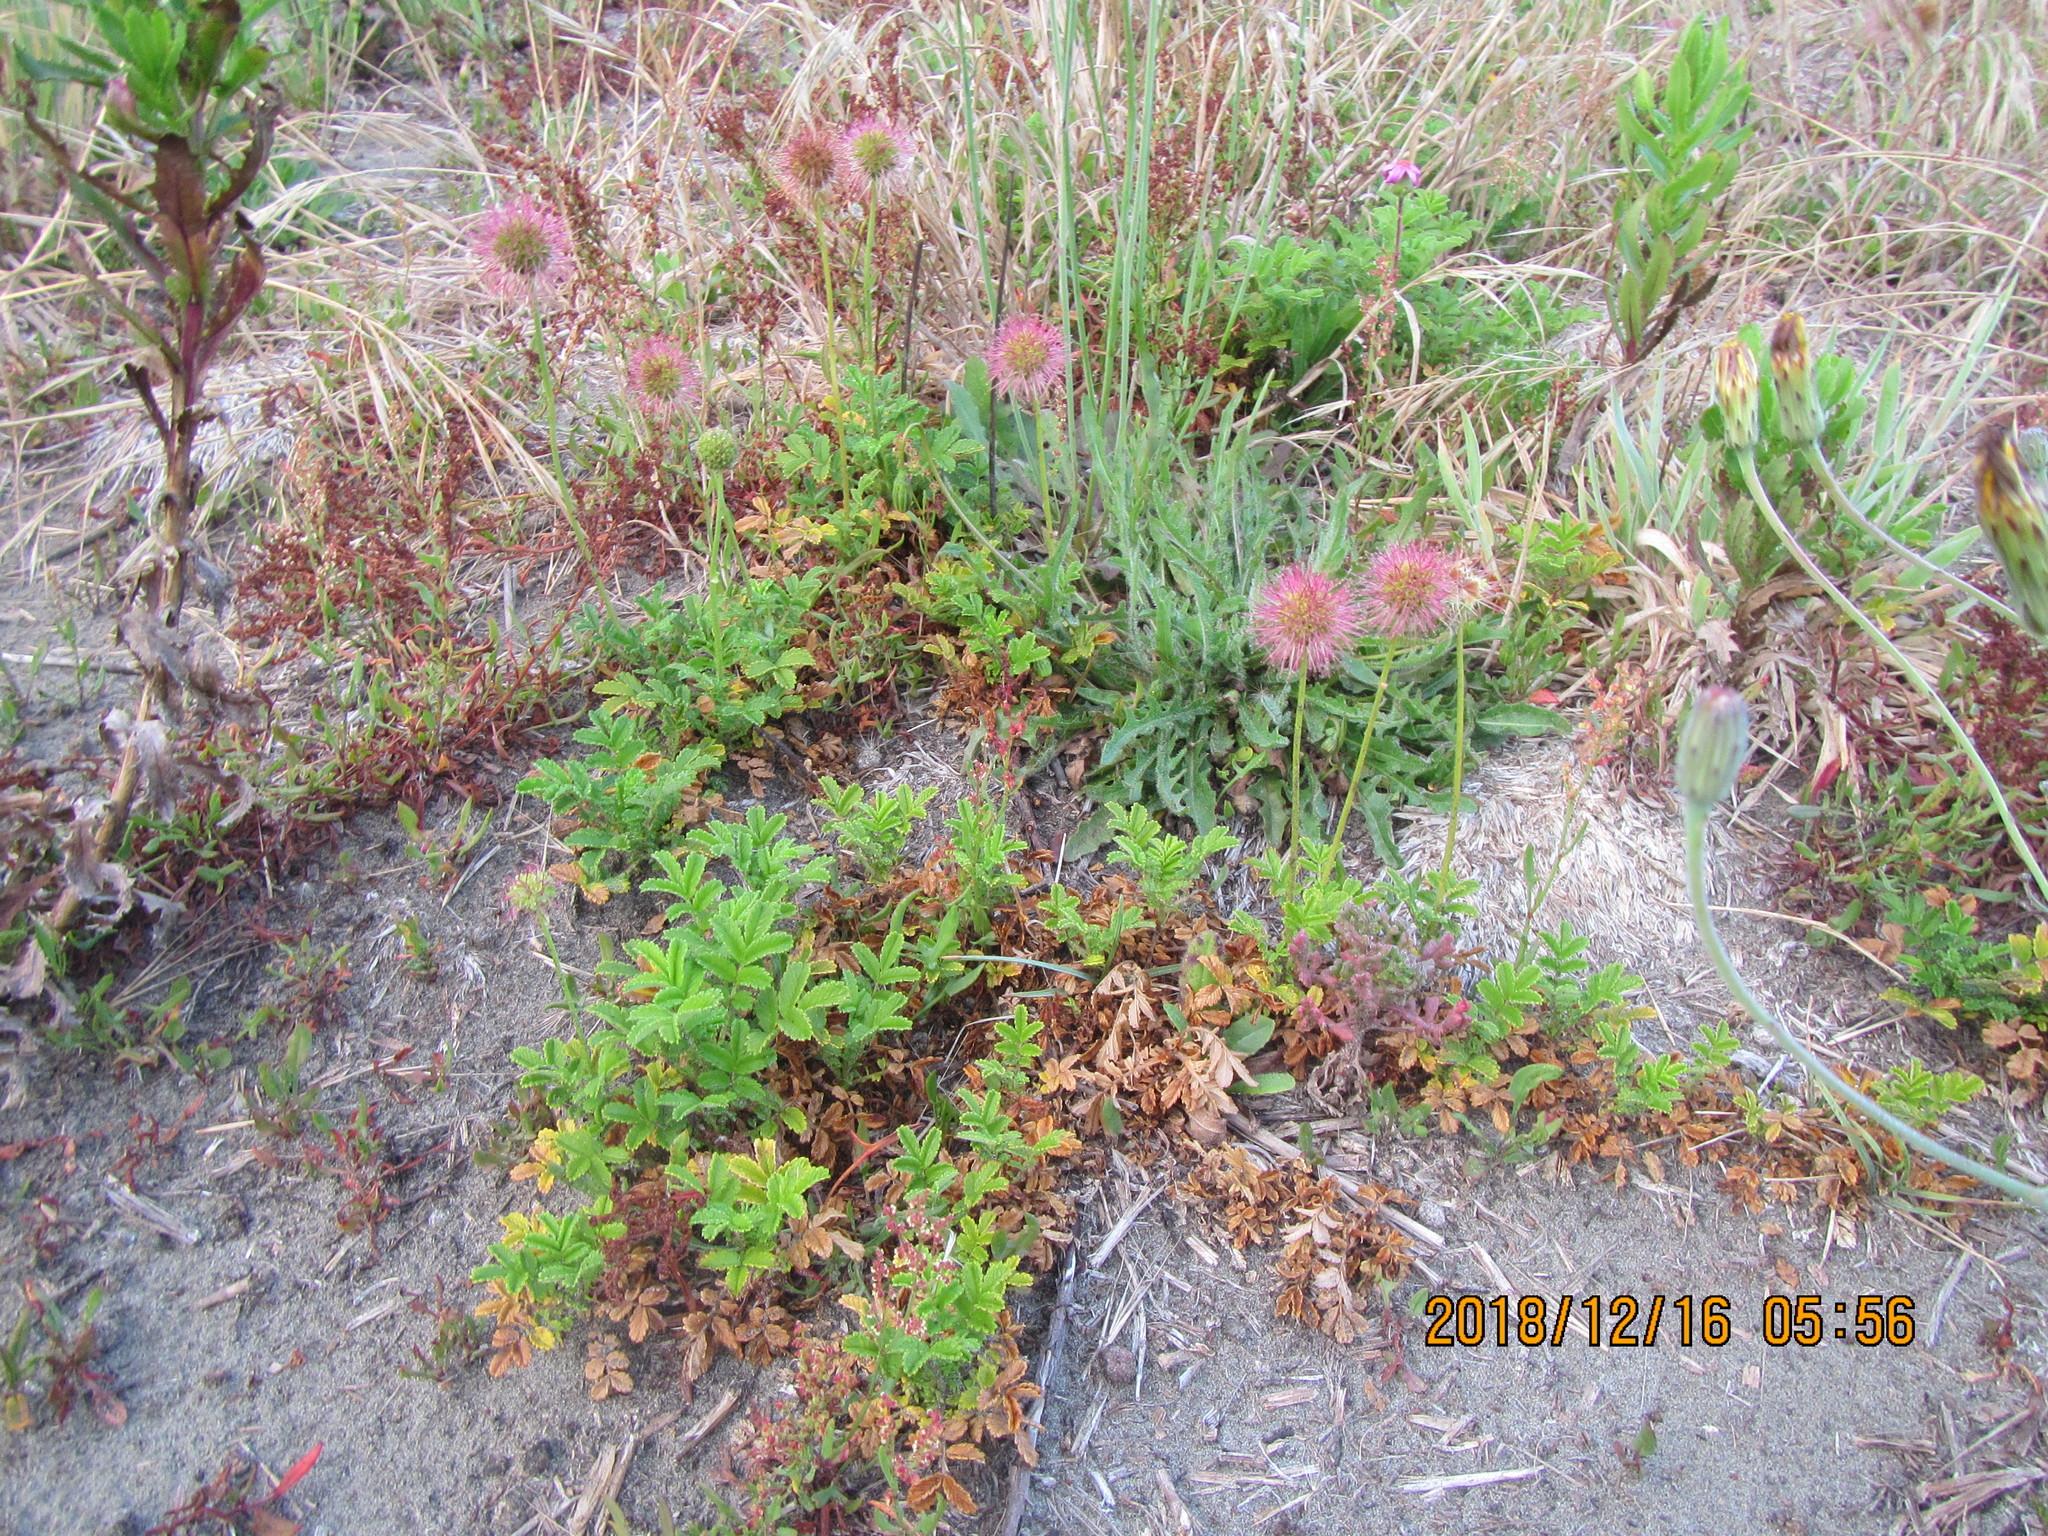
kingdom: Plantae
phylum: Tracheophyta
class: Magnoliopsida
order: Rosales
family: Rosaceae
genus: Acaena
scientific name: Acaena novae-zelandiae
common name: Pirri-pirri-bur
